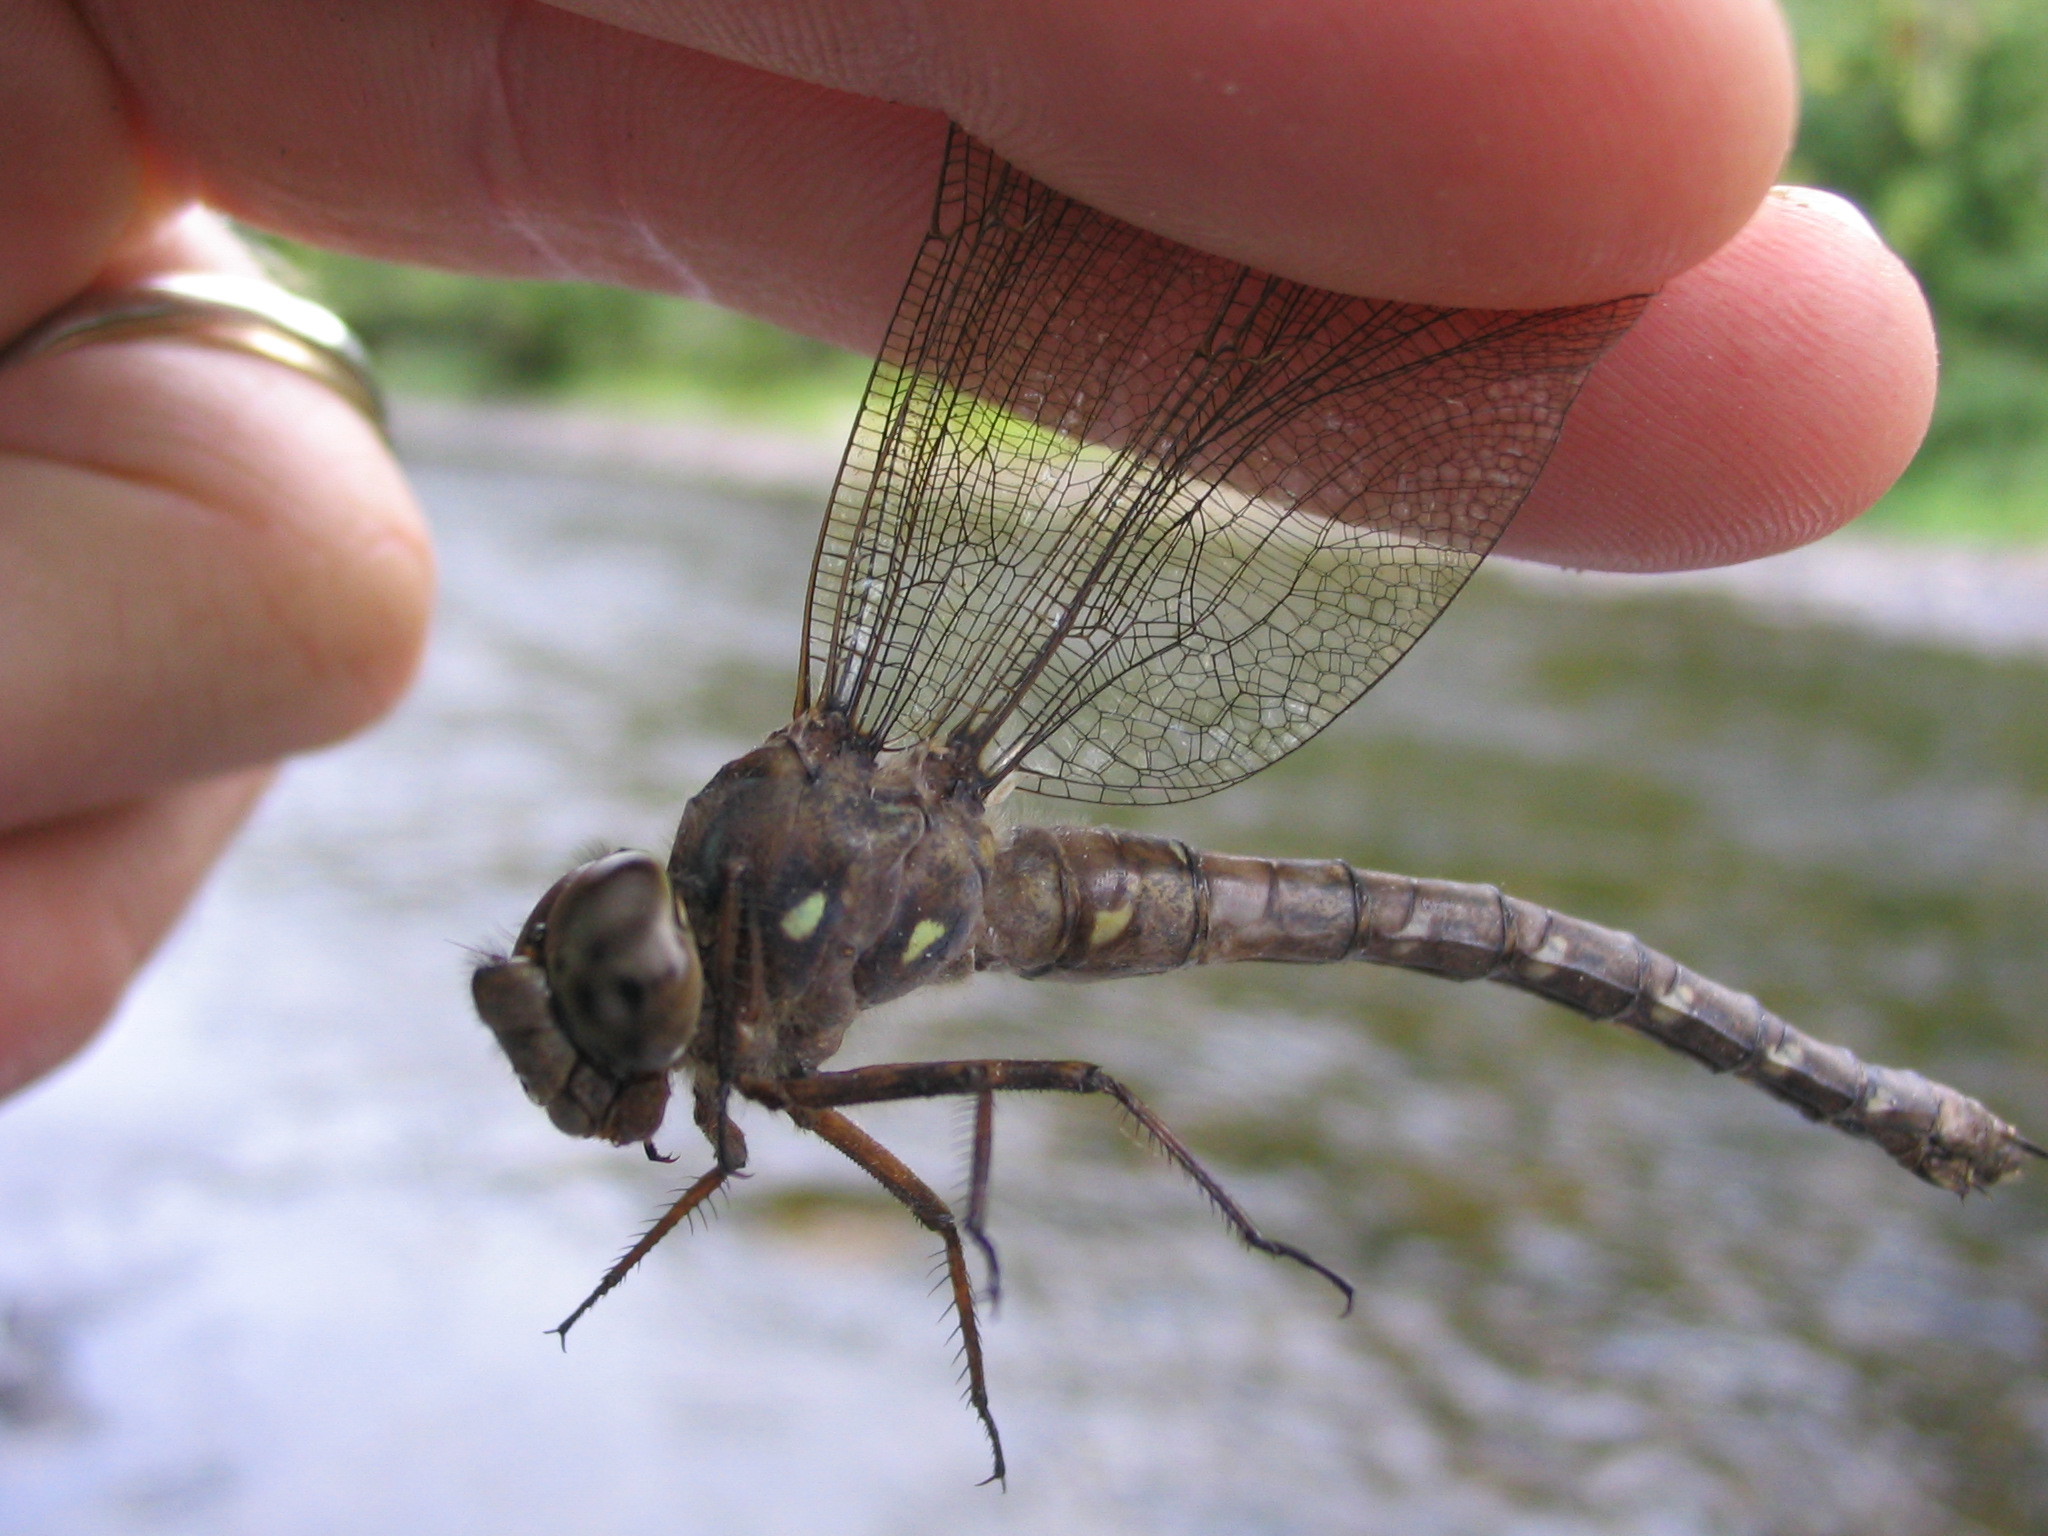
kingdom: Animalia
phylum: Arthropoda
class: Insecta
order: Odonata
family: Aeshnidae
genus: Boyeria
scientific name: Boyeria grafiana
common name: Ocellated darner
